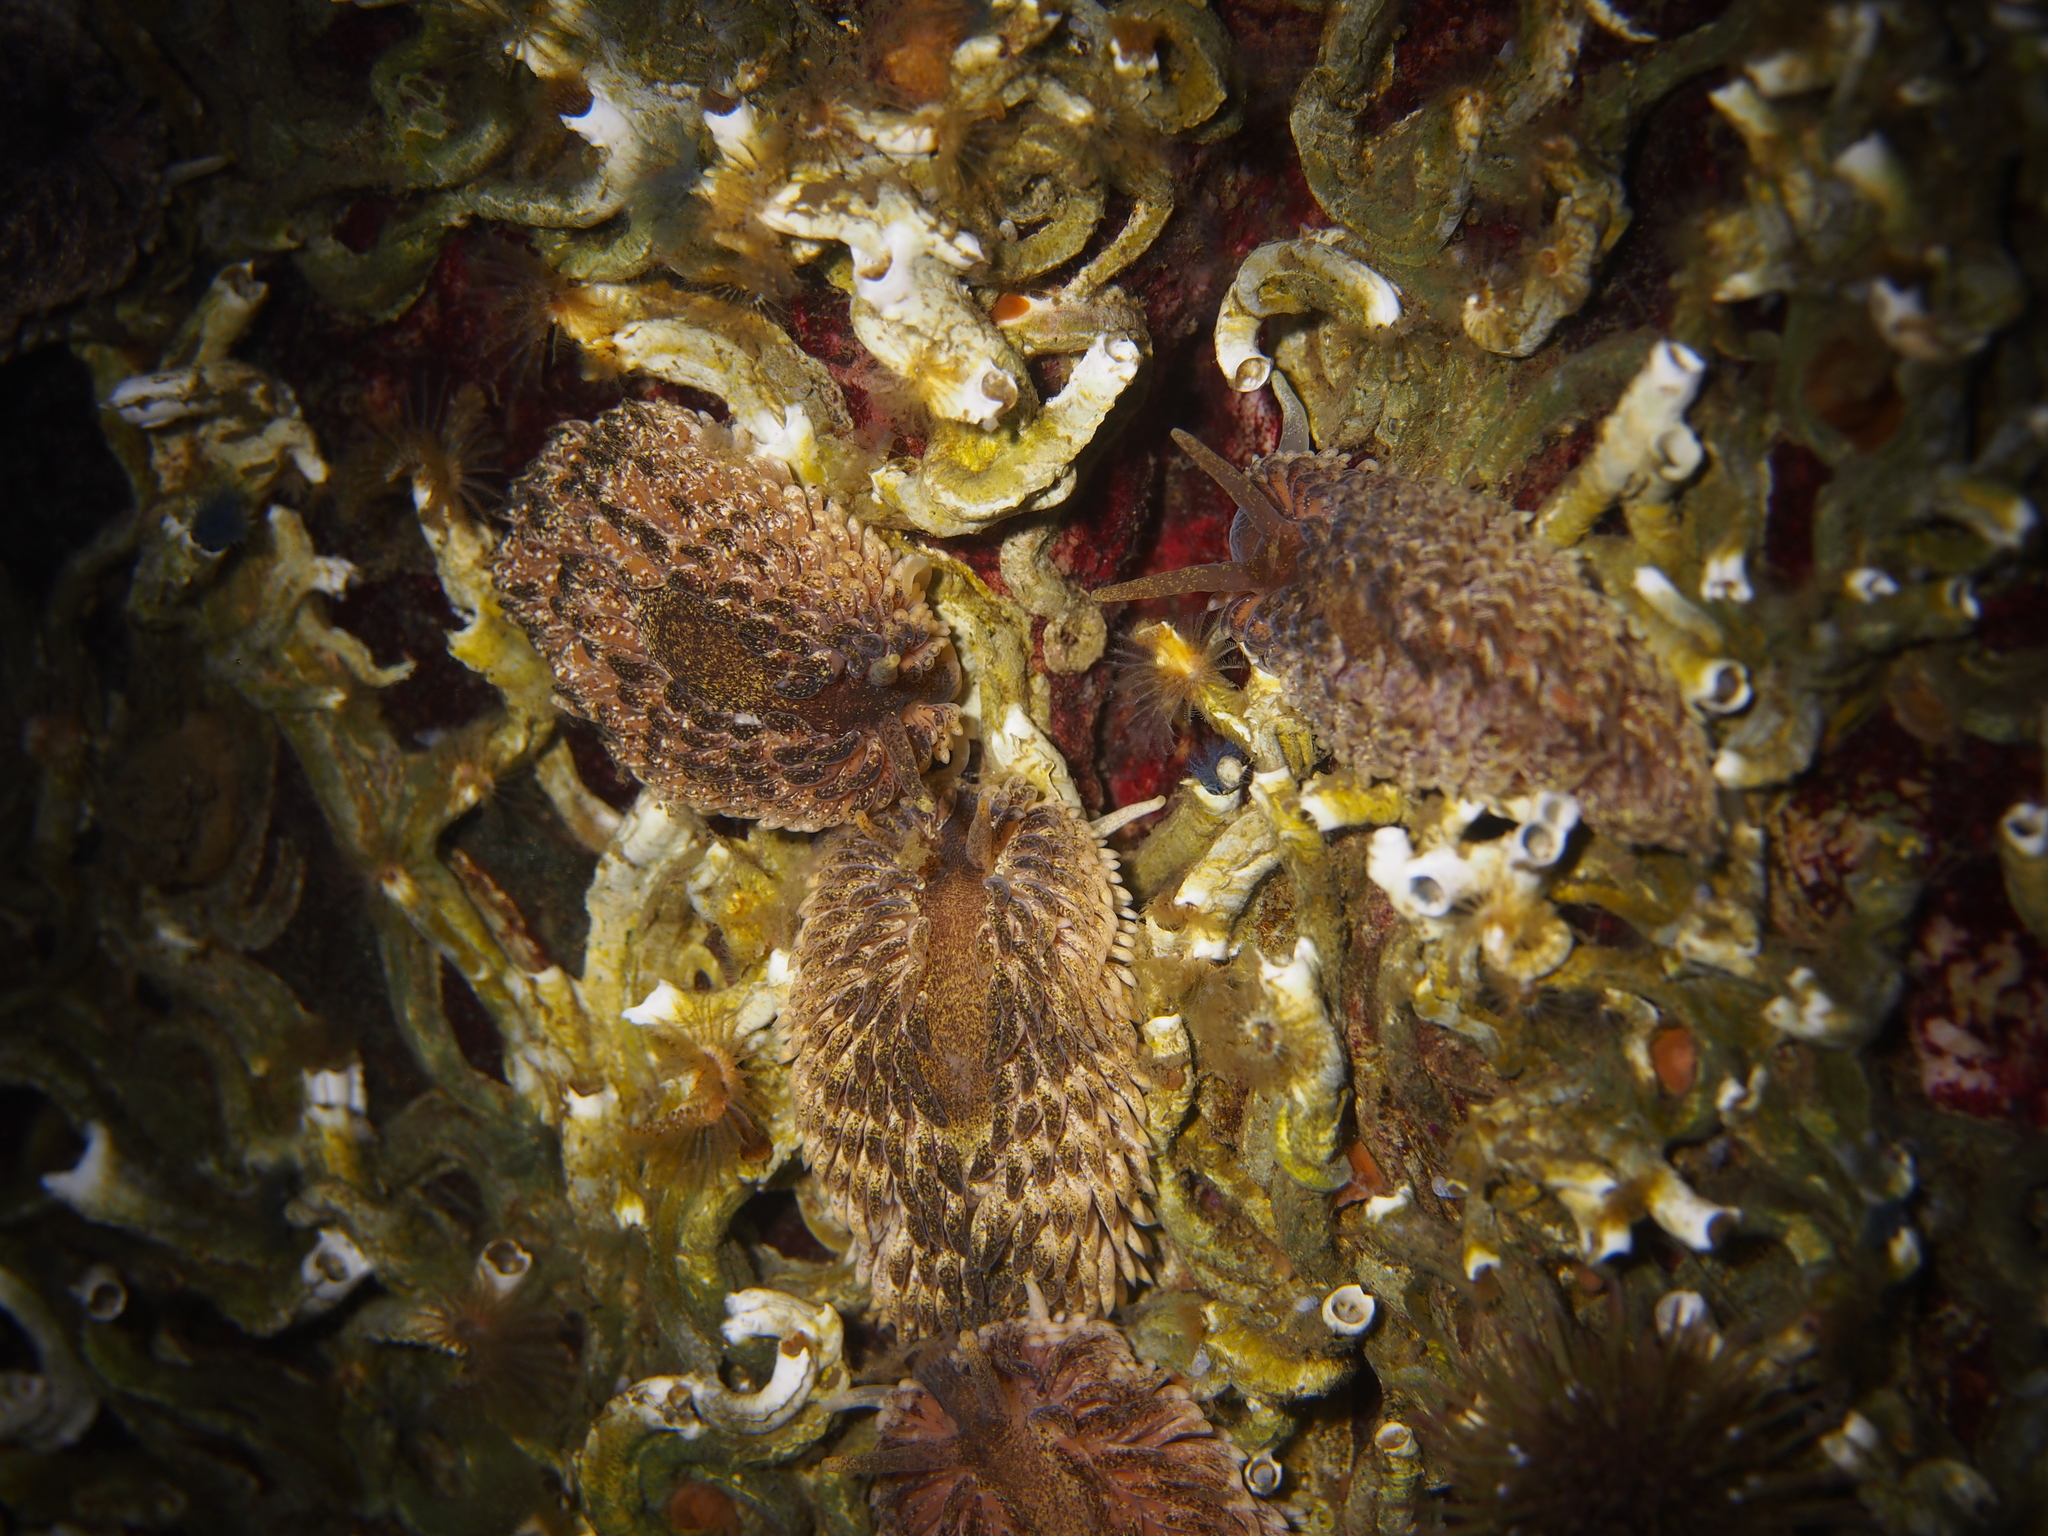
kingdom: Animalia
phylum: Mollusca
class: Gastropoda
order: Nudibranchia
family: Aeolidiidae
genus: Aeolidia
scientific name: Aeolidia papillosa
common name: Common grey sea slug
